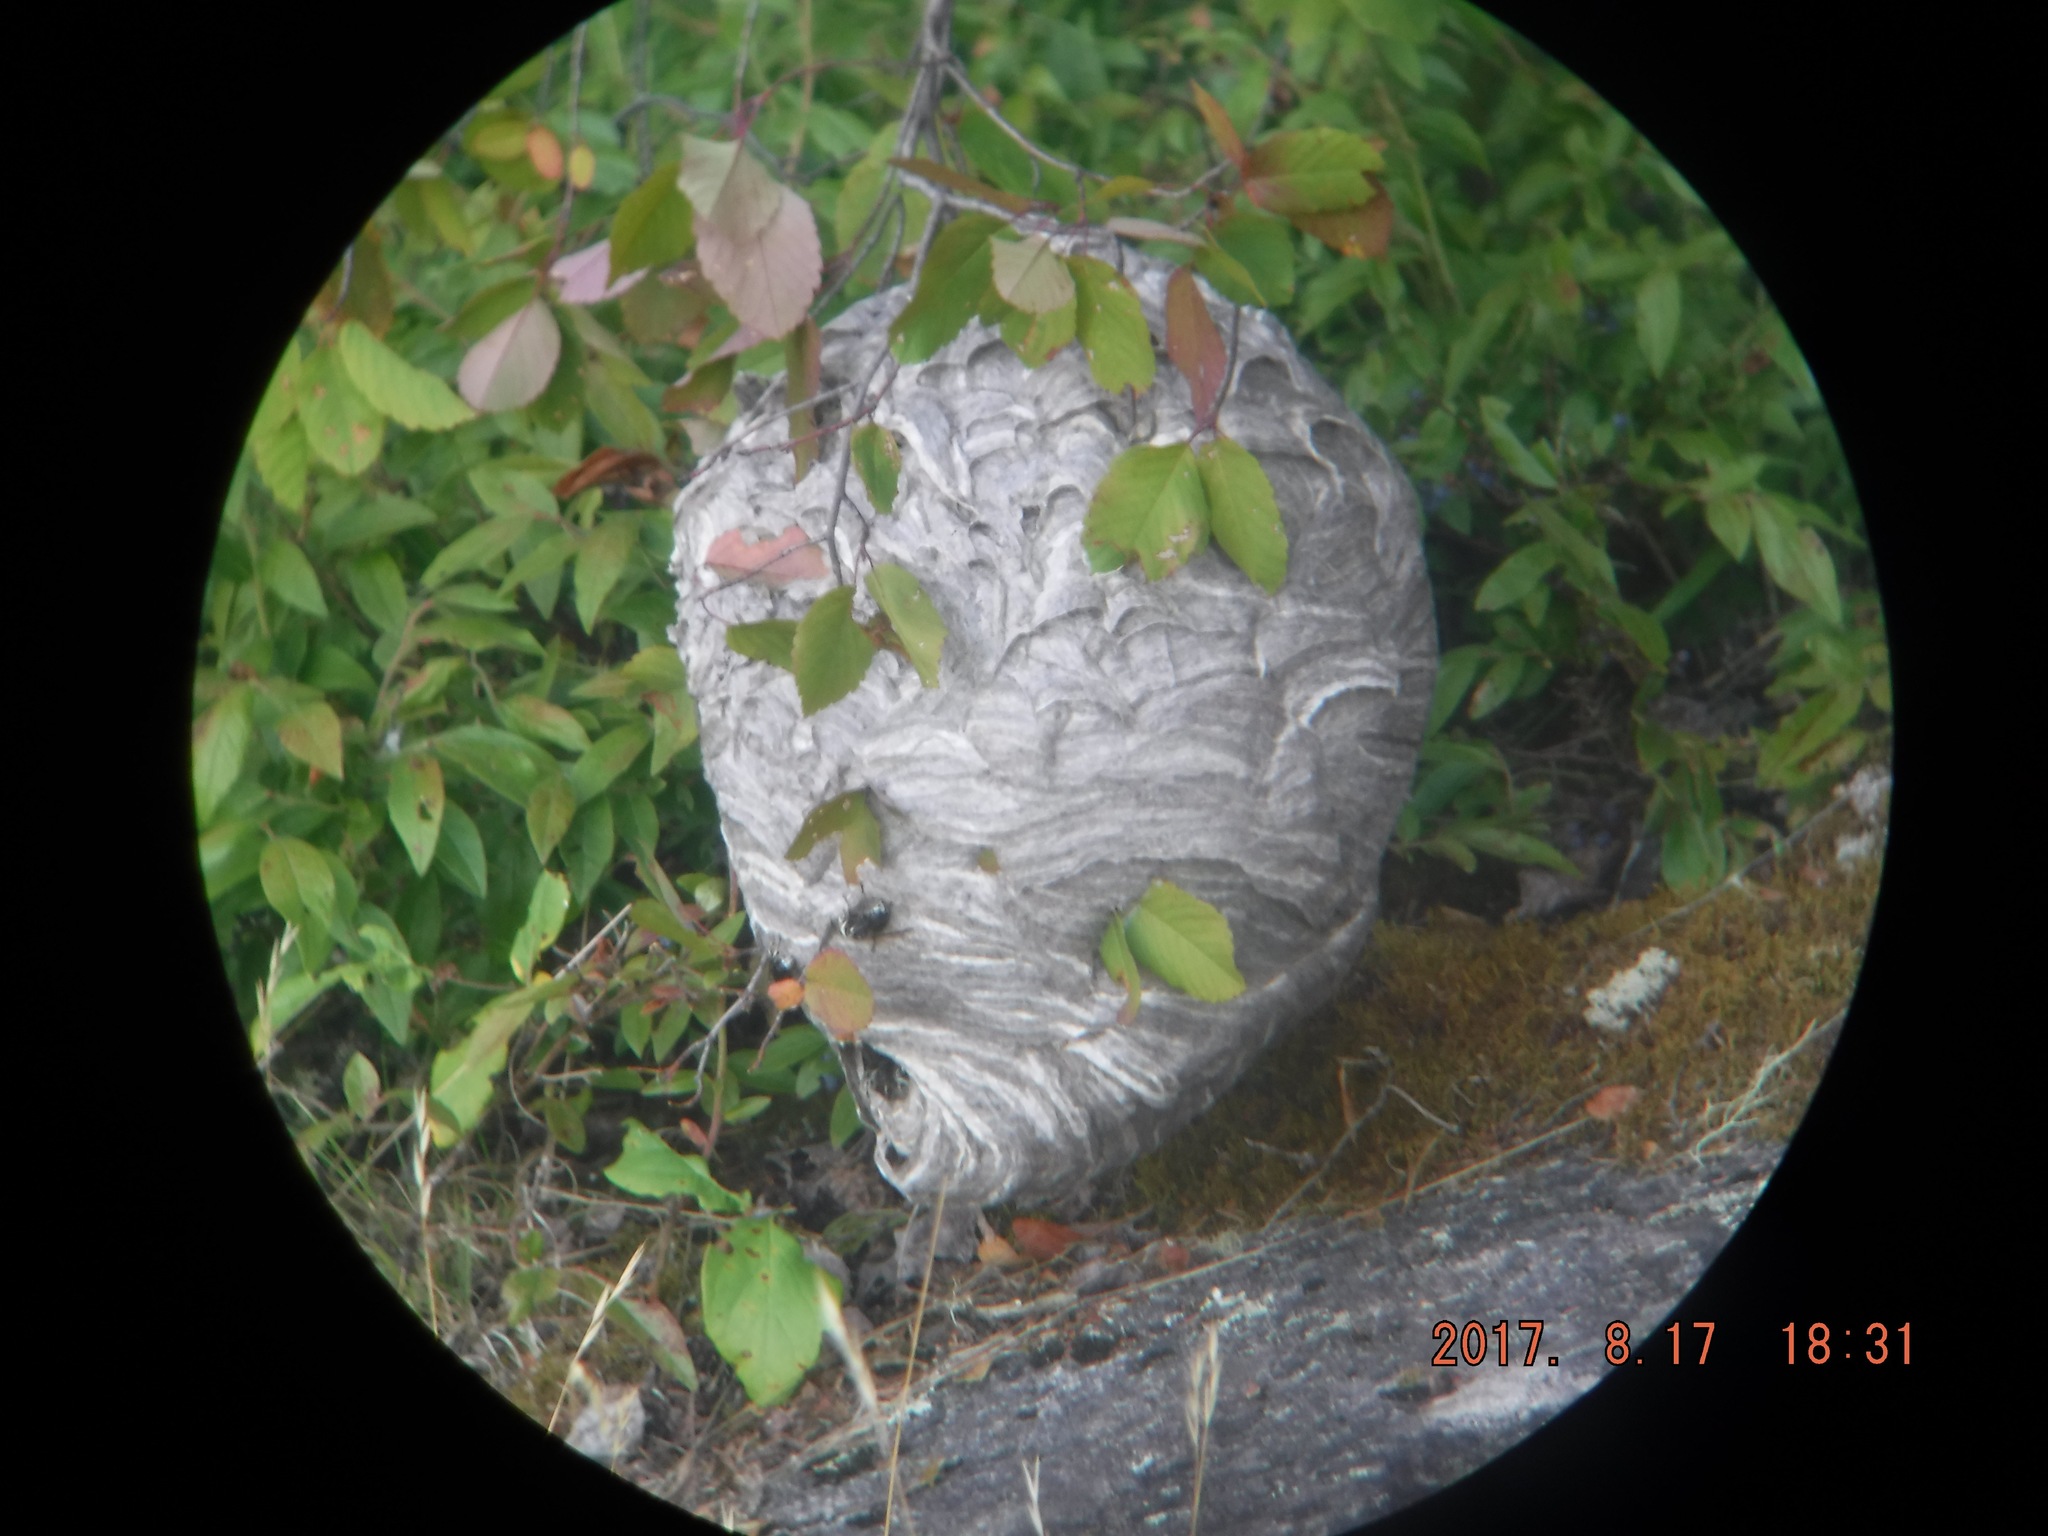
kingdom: Animalia
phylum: Arthropoda
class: Insecta
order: Hymenoptera
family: Vespidae
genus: Dolichovespula
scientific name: Dolichovespula maculata
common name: Bald-faced hornet
